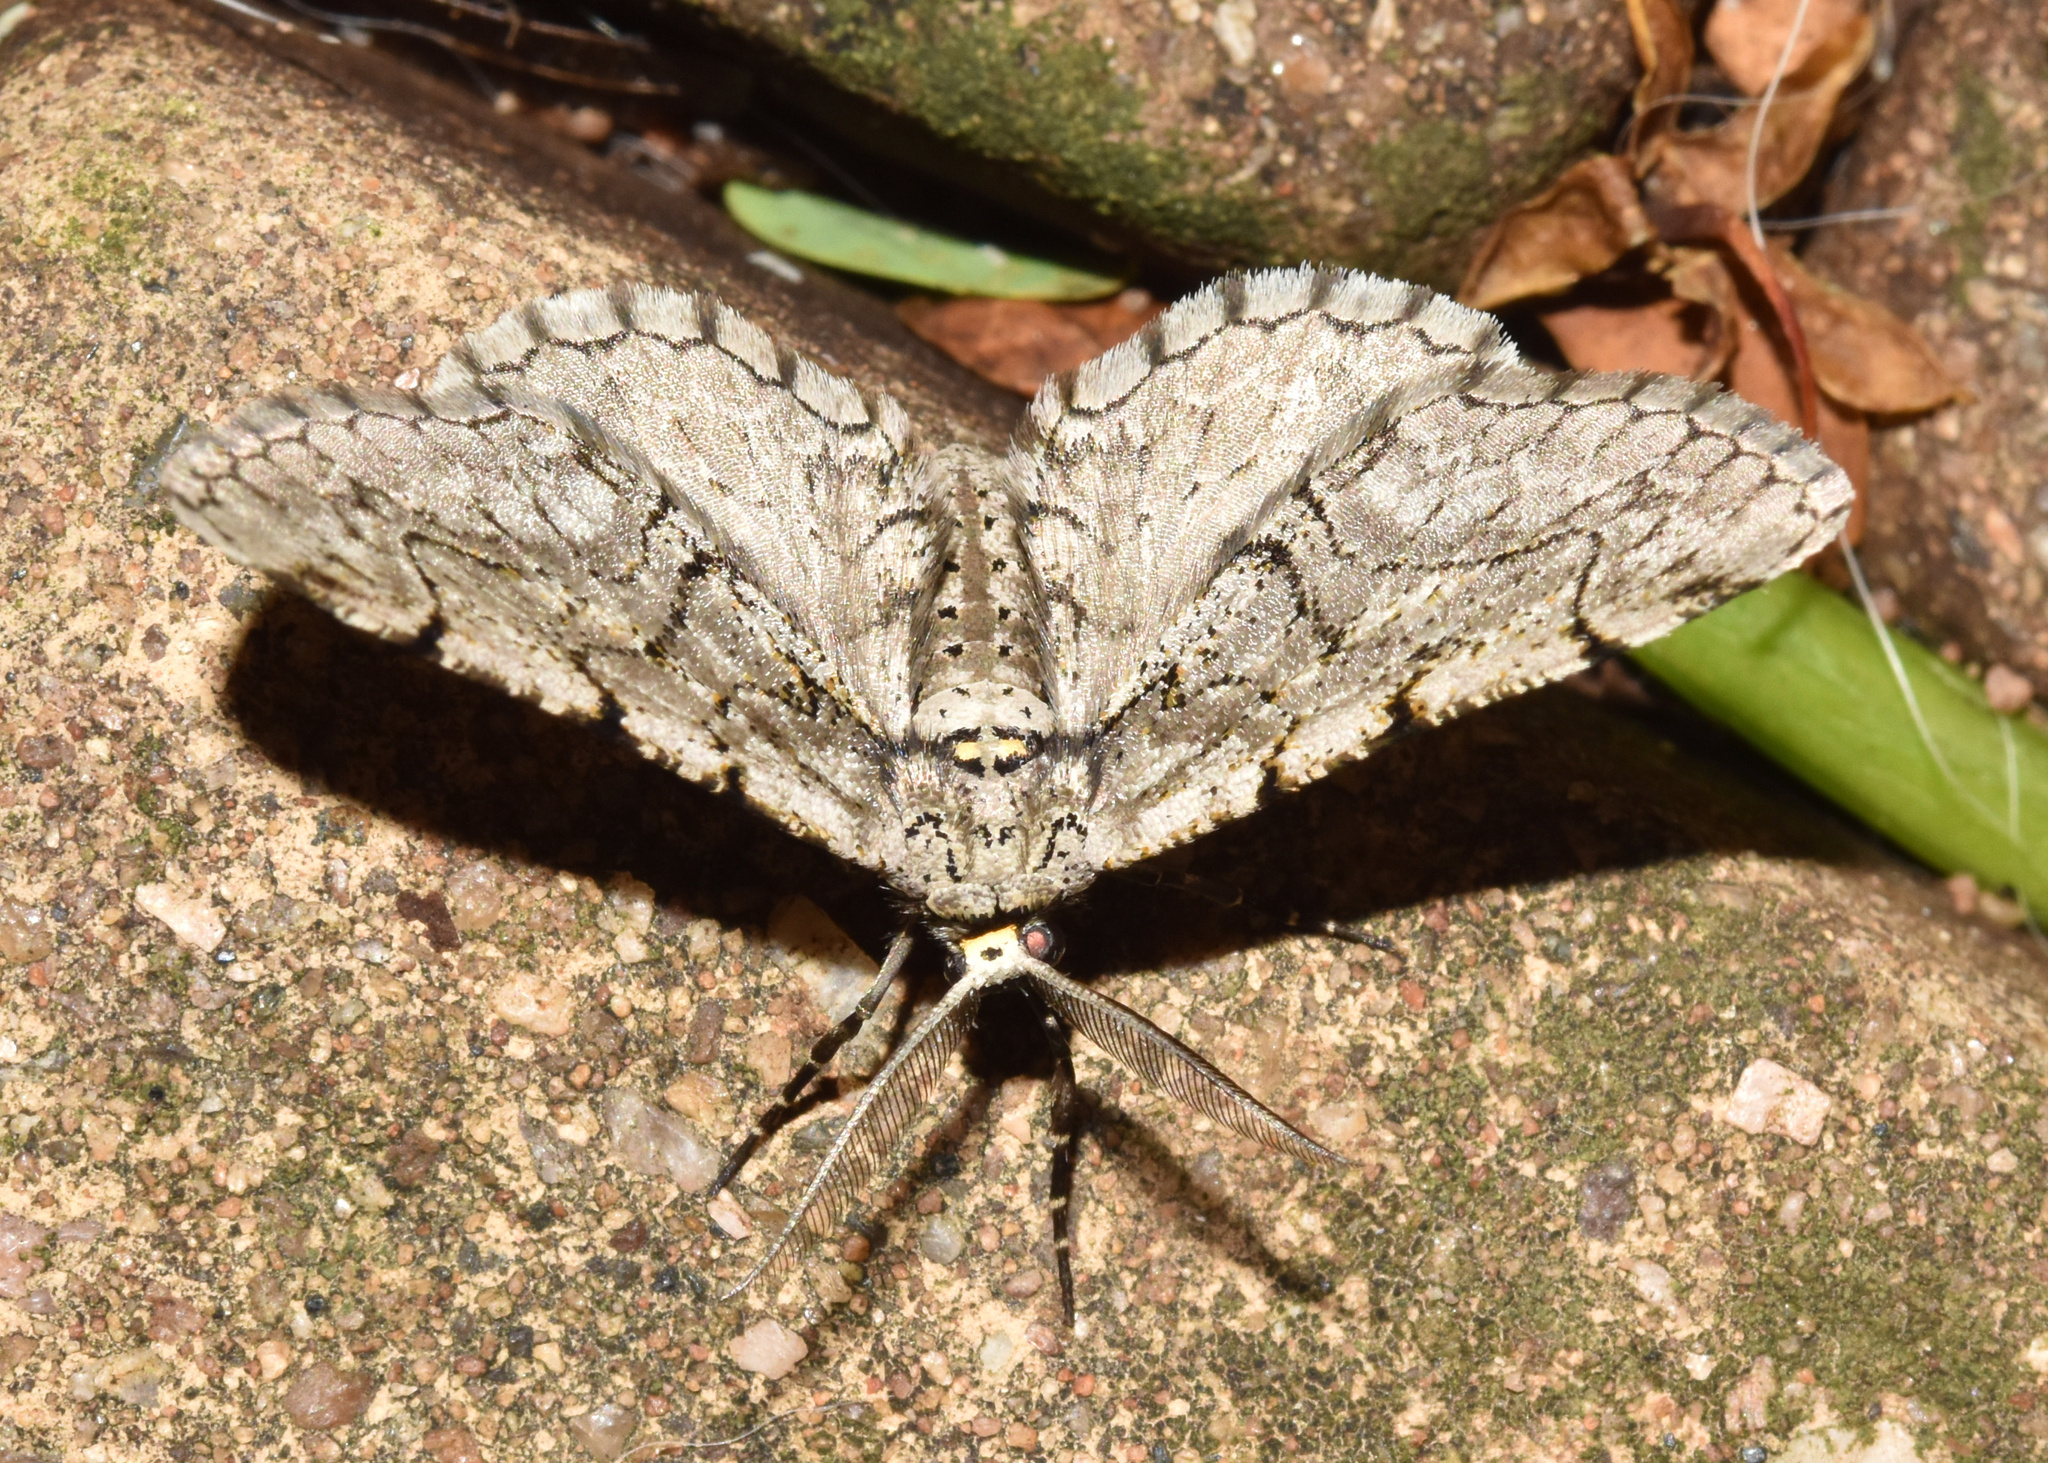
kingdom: Animalia
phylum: Arthropoda
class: Insecta
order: Lepidoptera
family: Geometridae
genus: Eulycia
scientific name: Eulycia subpunctata
